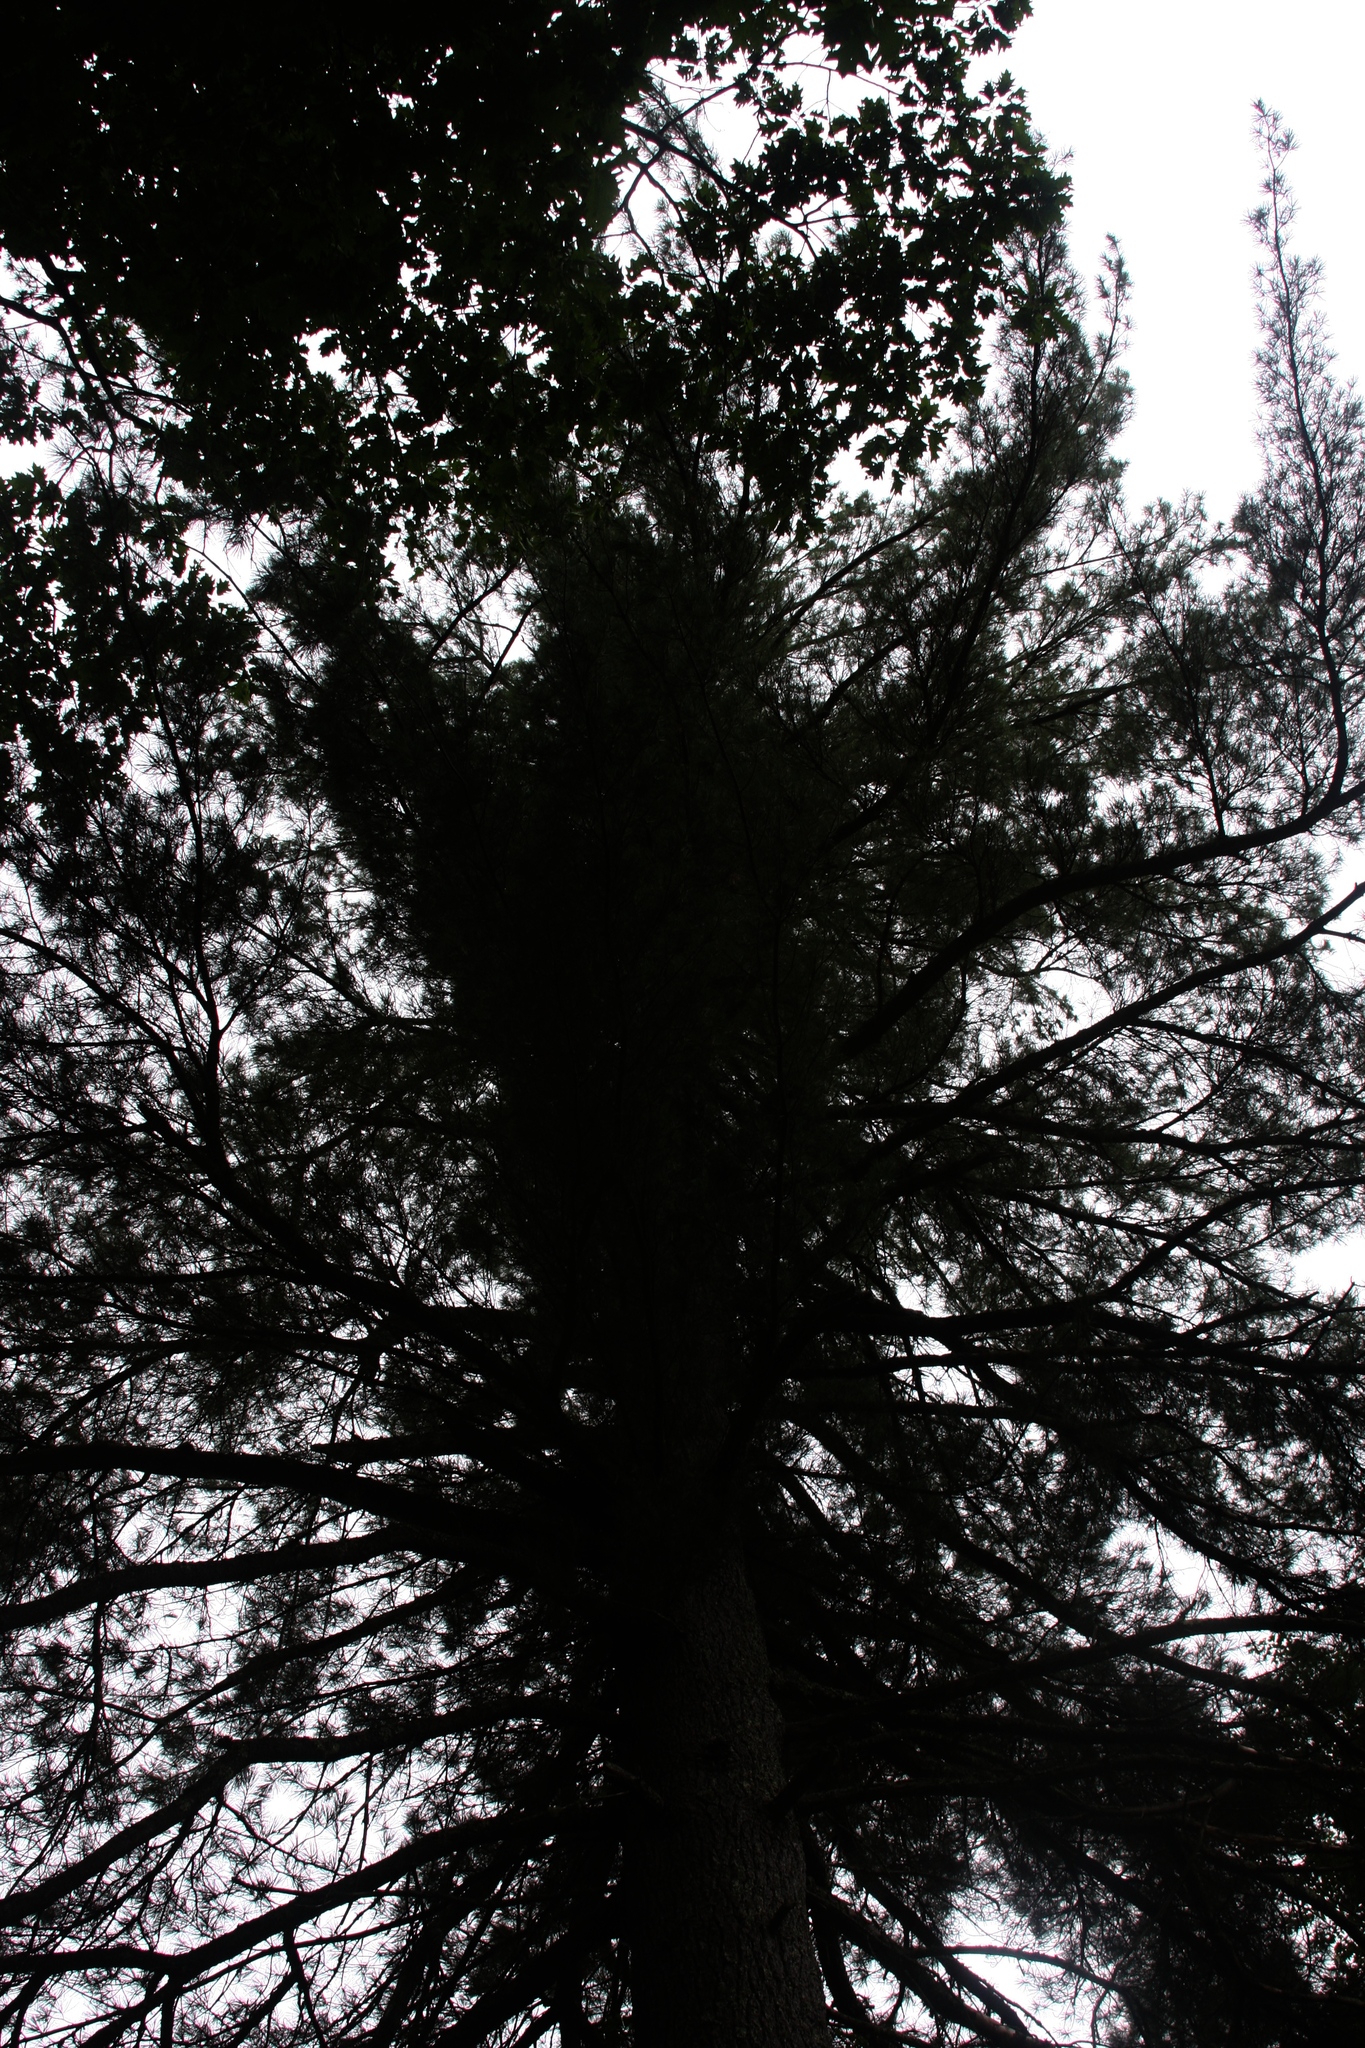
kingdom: Plantae
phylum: Tracheophyta
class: Pinopsida
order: Pinales
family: Pinaceae
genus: Pinus
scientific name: Pinus strobus
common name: Weymouth pine
